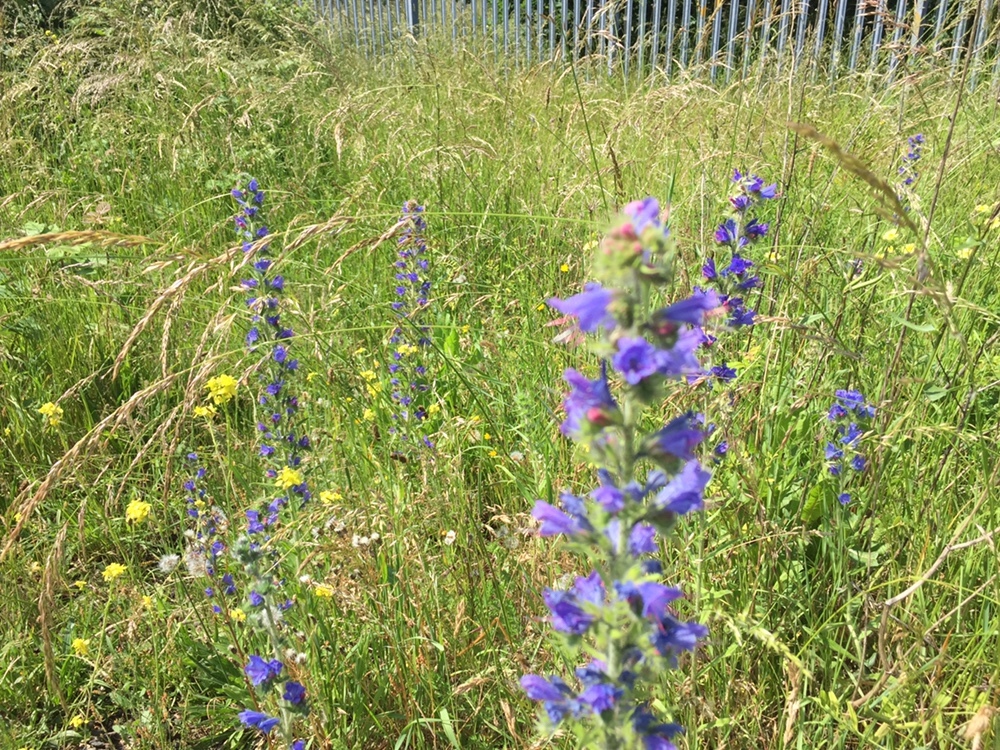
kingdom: Plantae
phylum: Tracheophyta
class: Magnoliopsida
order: Boraginales
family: Boraginaceae
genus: Echium
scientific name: Echium vulgare
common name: Common viper's bugloss
